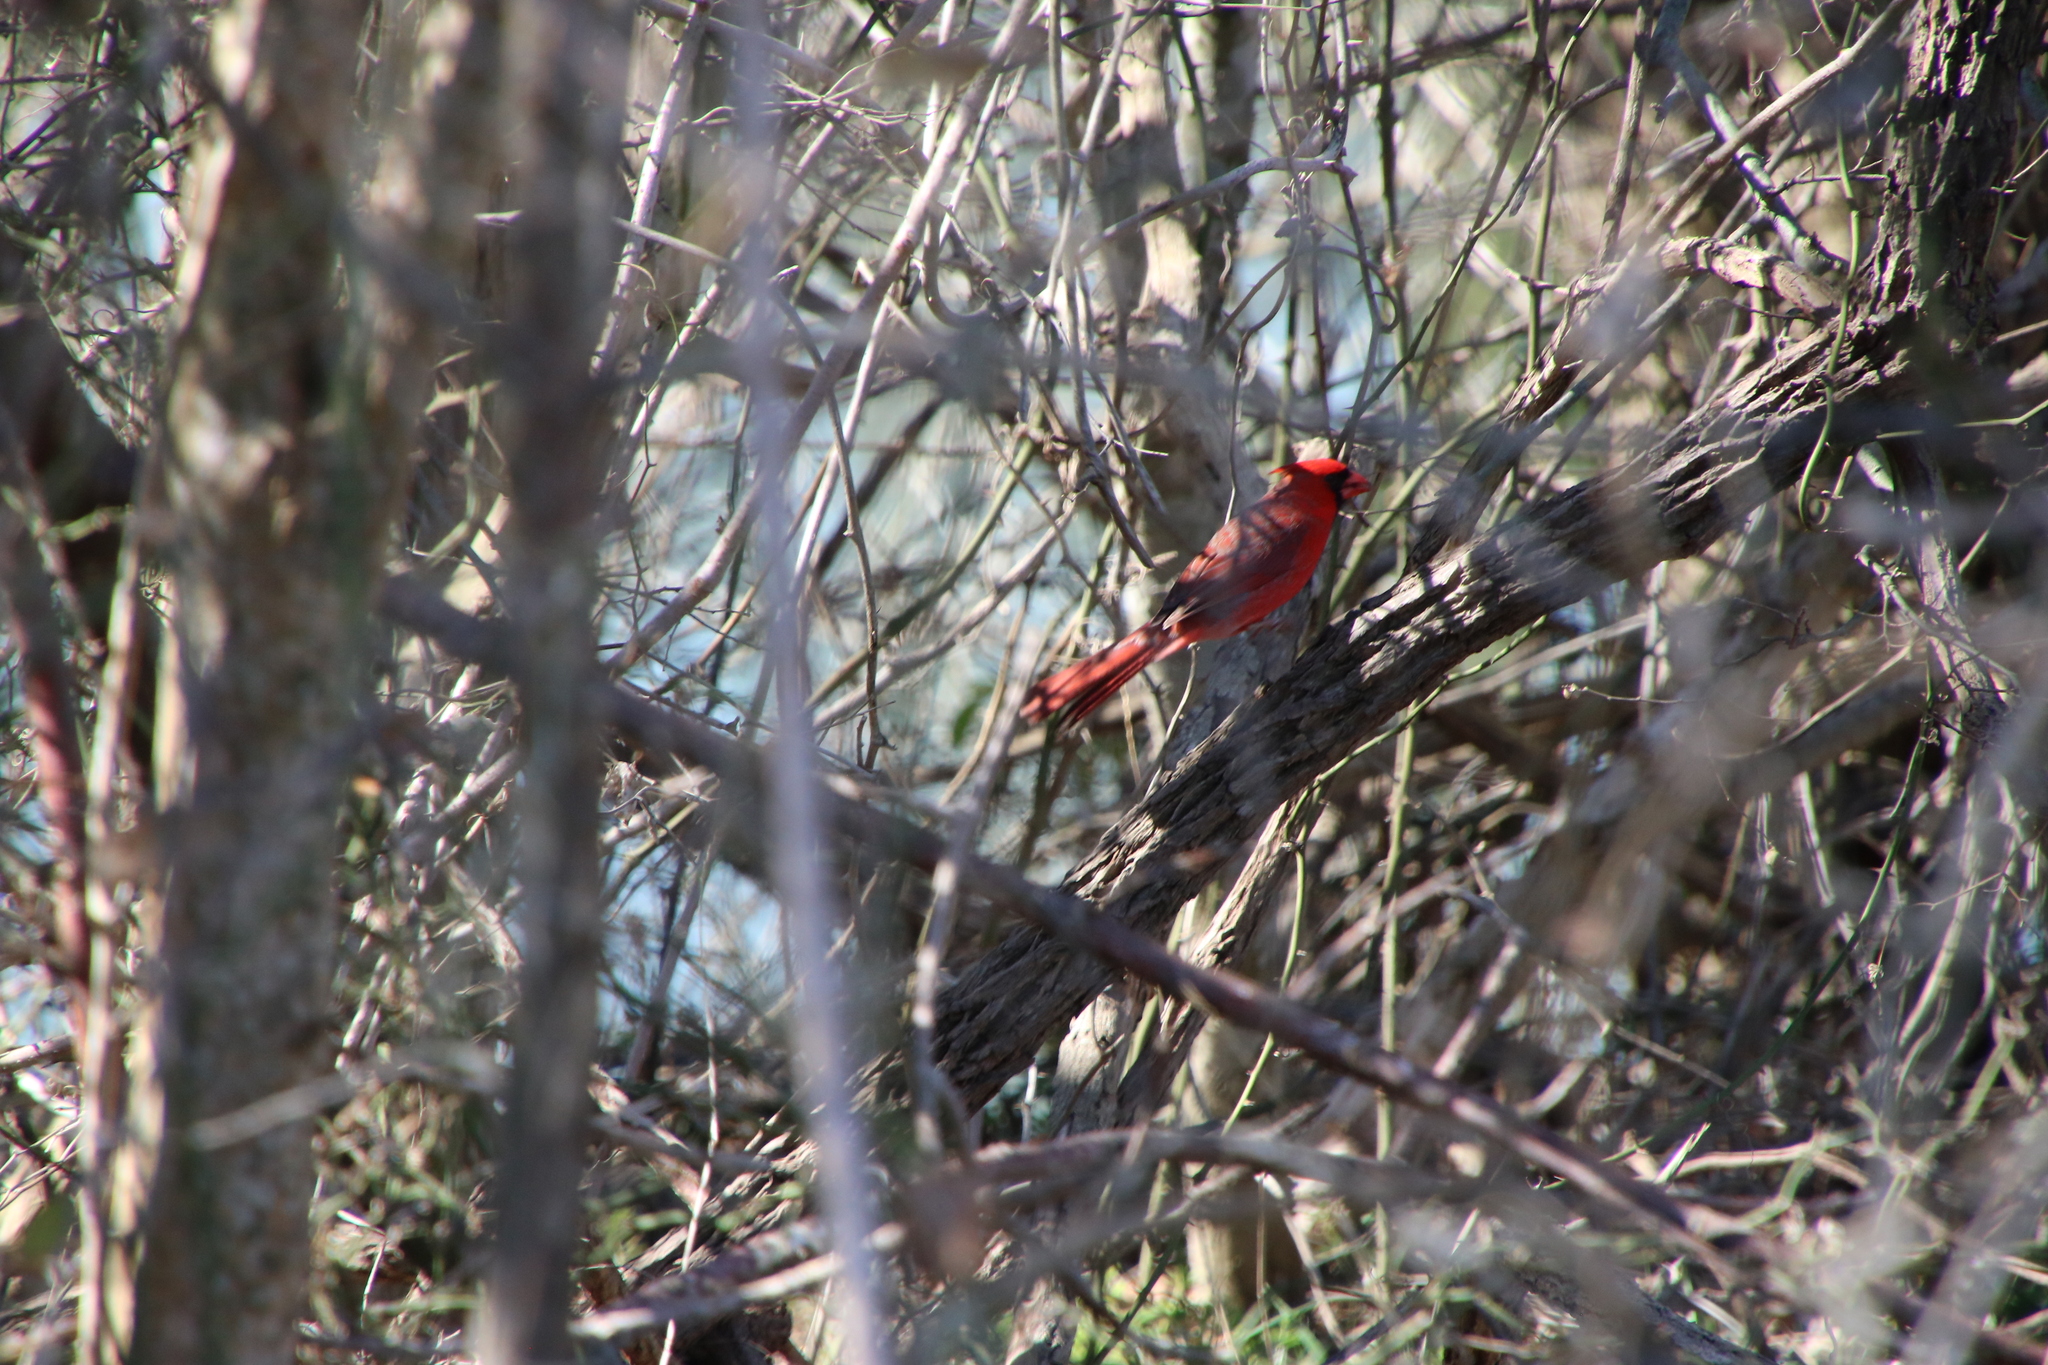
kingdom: Animalia
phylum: Chordata
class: Aves
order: Passeriformes
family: Cardinalidae
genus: Cardinalis
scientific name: Cardinalis cardinalis
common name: Northern cardinal
